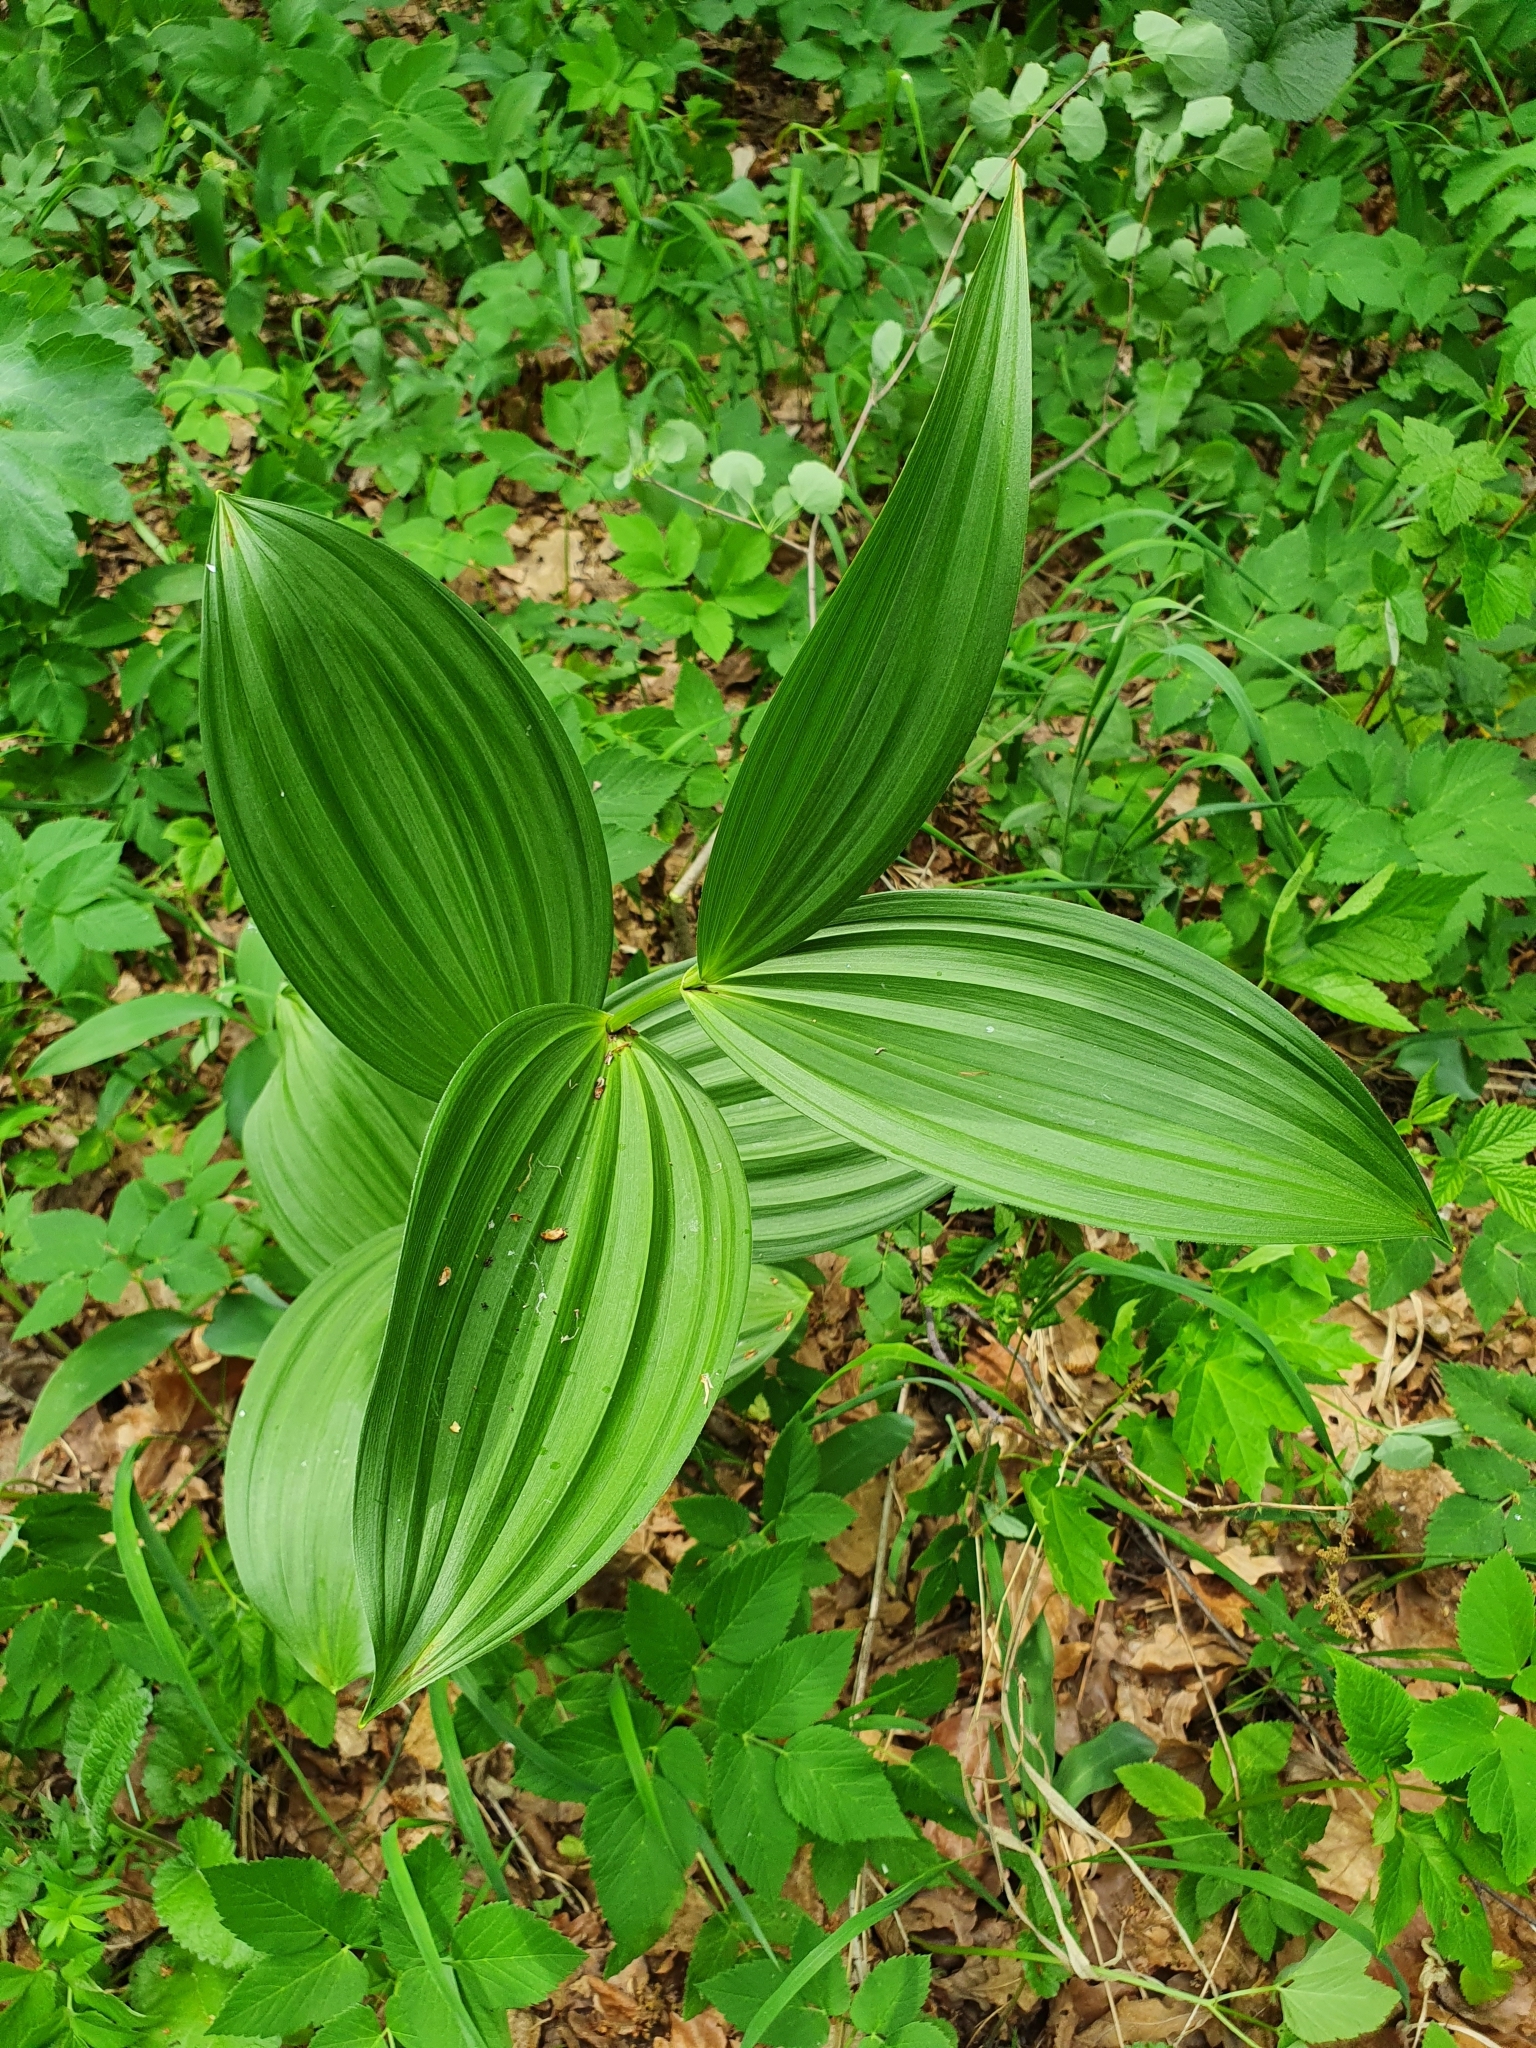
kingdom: Plantae
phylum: Tracheophyta
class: Liliopsida
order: Liliales
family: Melanthiaceae
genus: Veratrum
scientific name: Veratrum lobelianum
